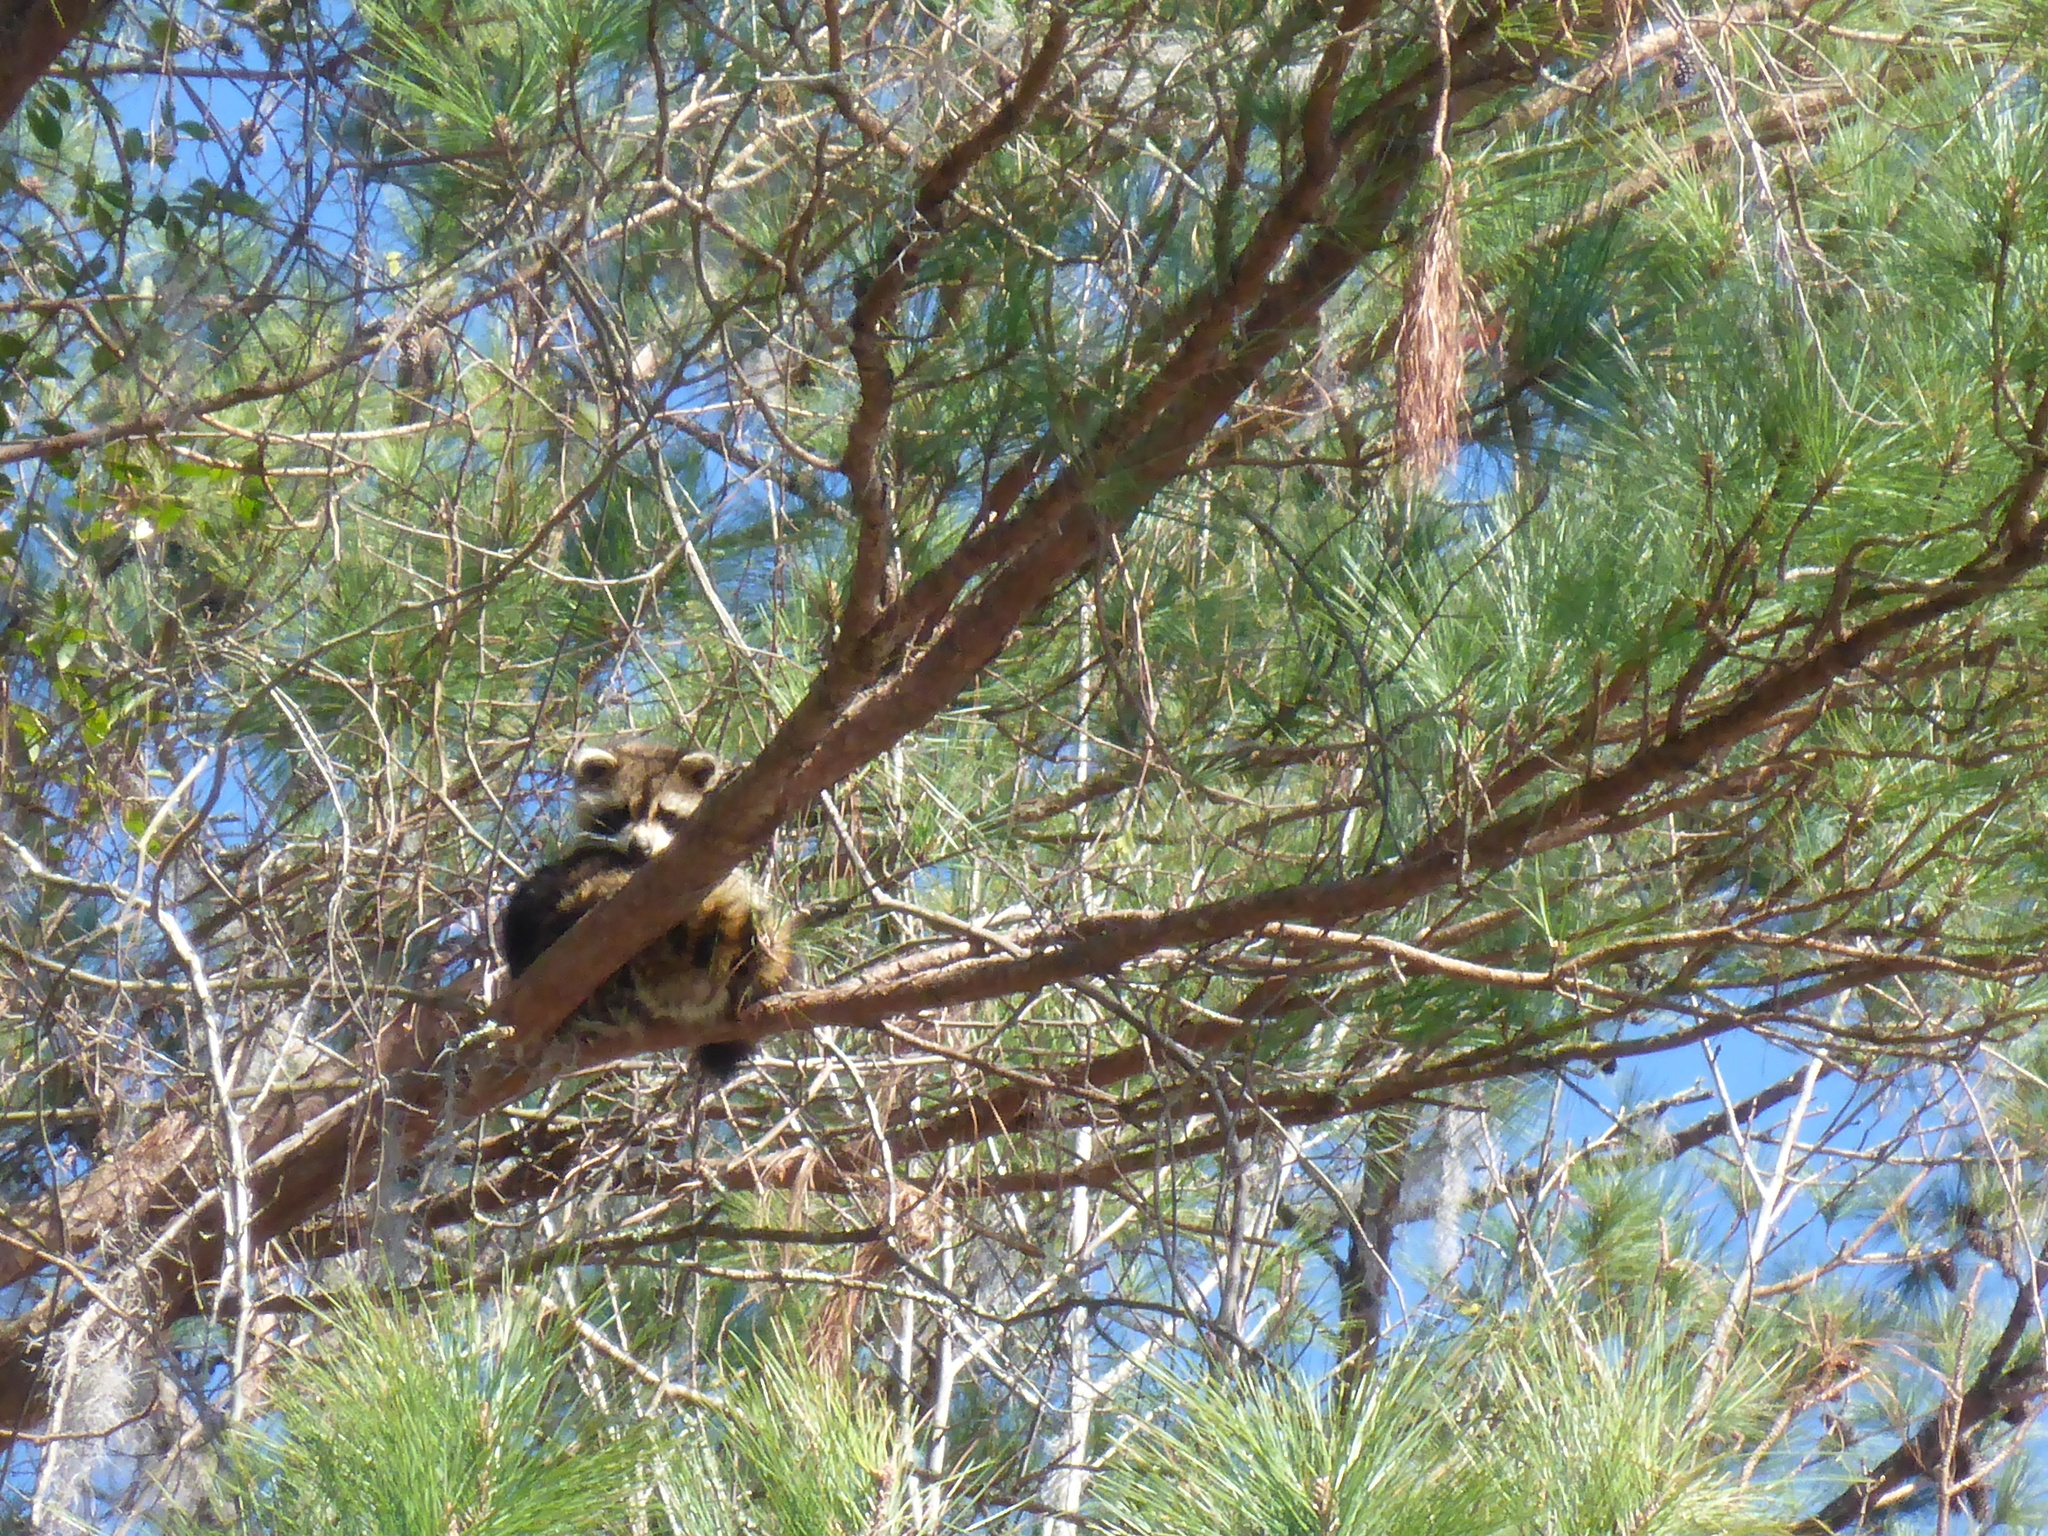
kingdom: Animalia
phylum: Chordata
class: Mammalia
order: Carnivora
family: Procyonidae
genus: Procyon
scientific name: Procyon lotor
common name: Raccoon
